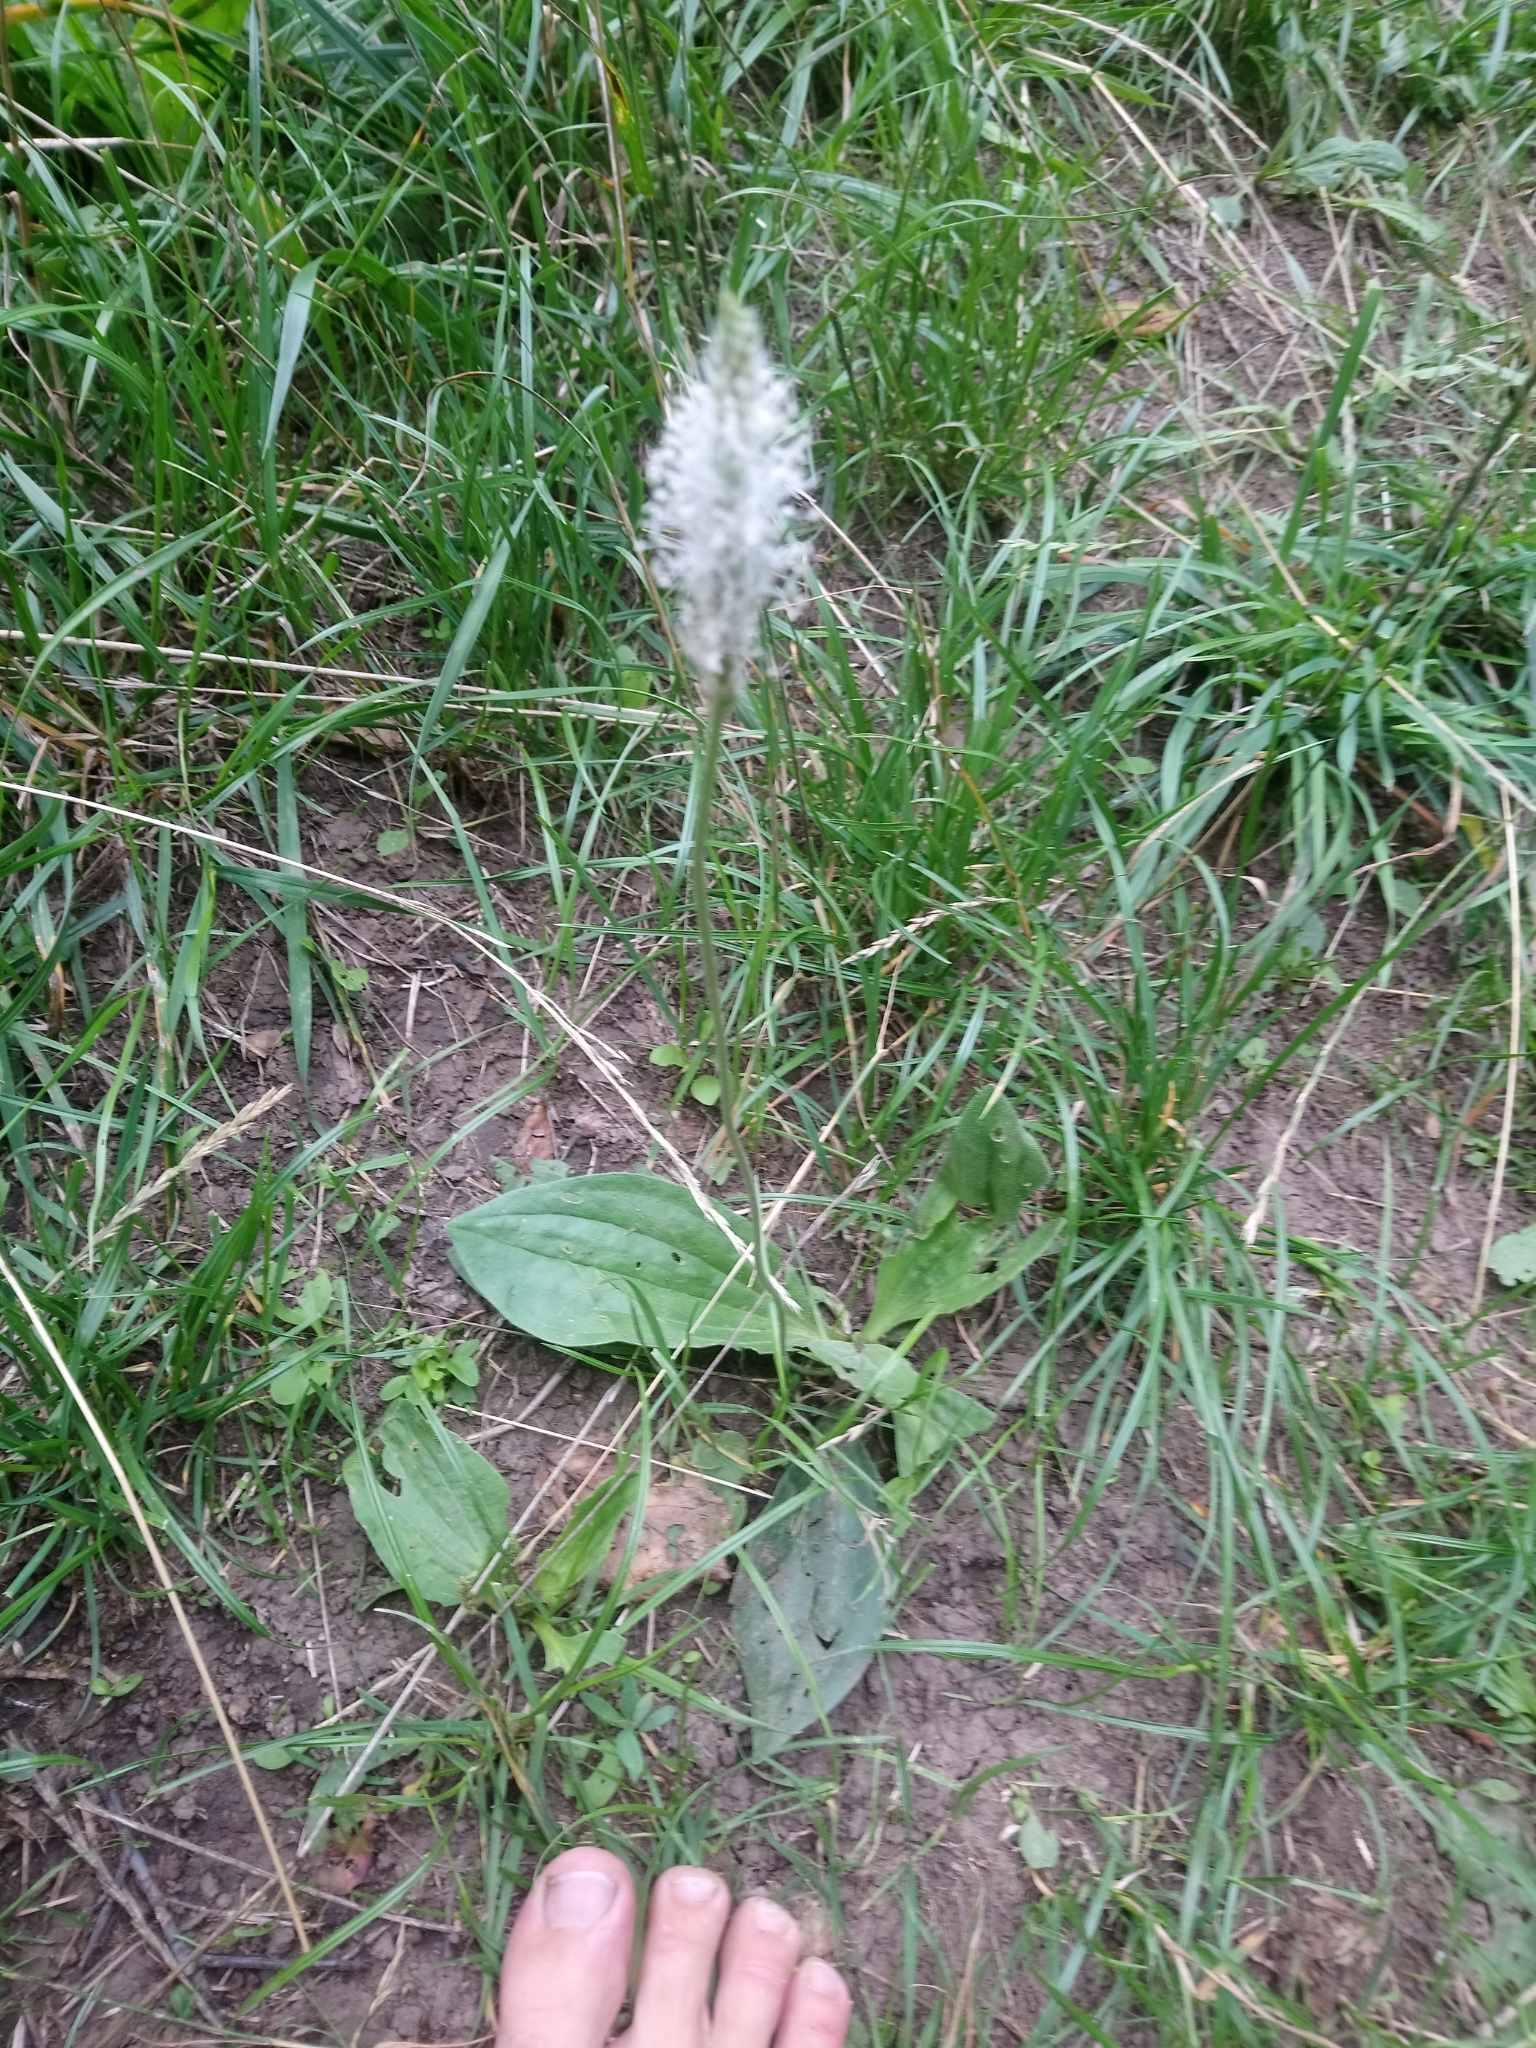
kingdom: Plantae
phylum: Tracheophyta
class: Magnoliopsida
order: Lamiales
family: Plantaginaceae
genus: Plantago
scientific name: Plantago media
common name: Hoary plantain
